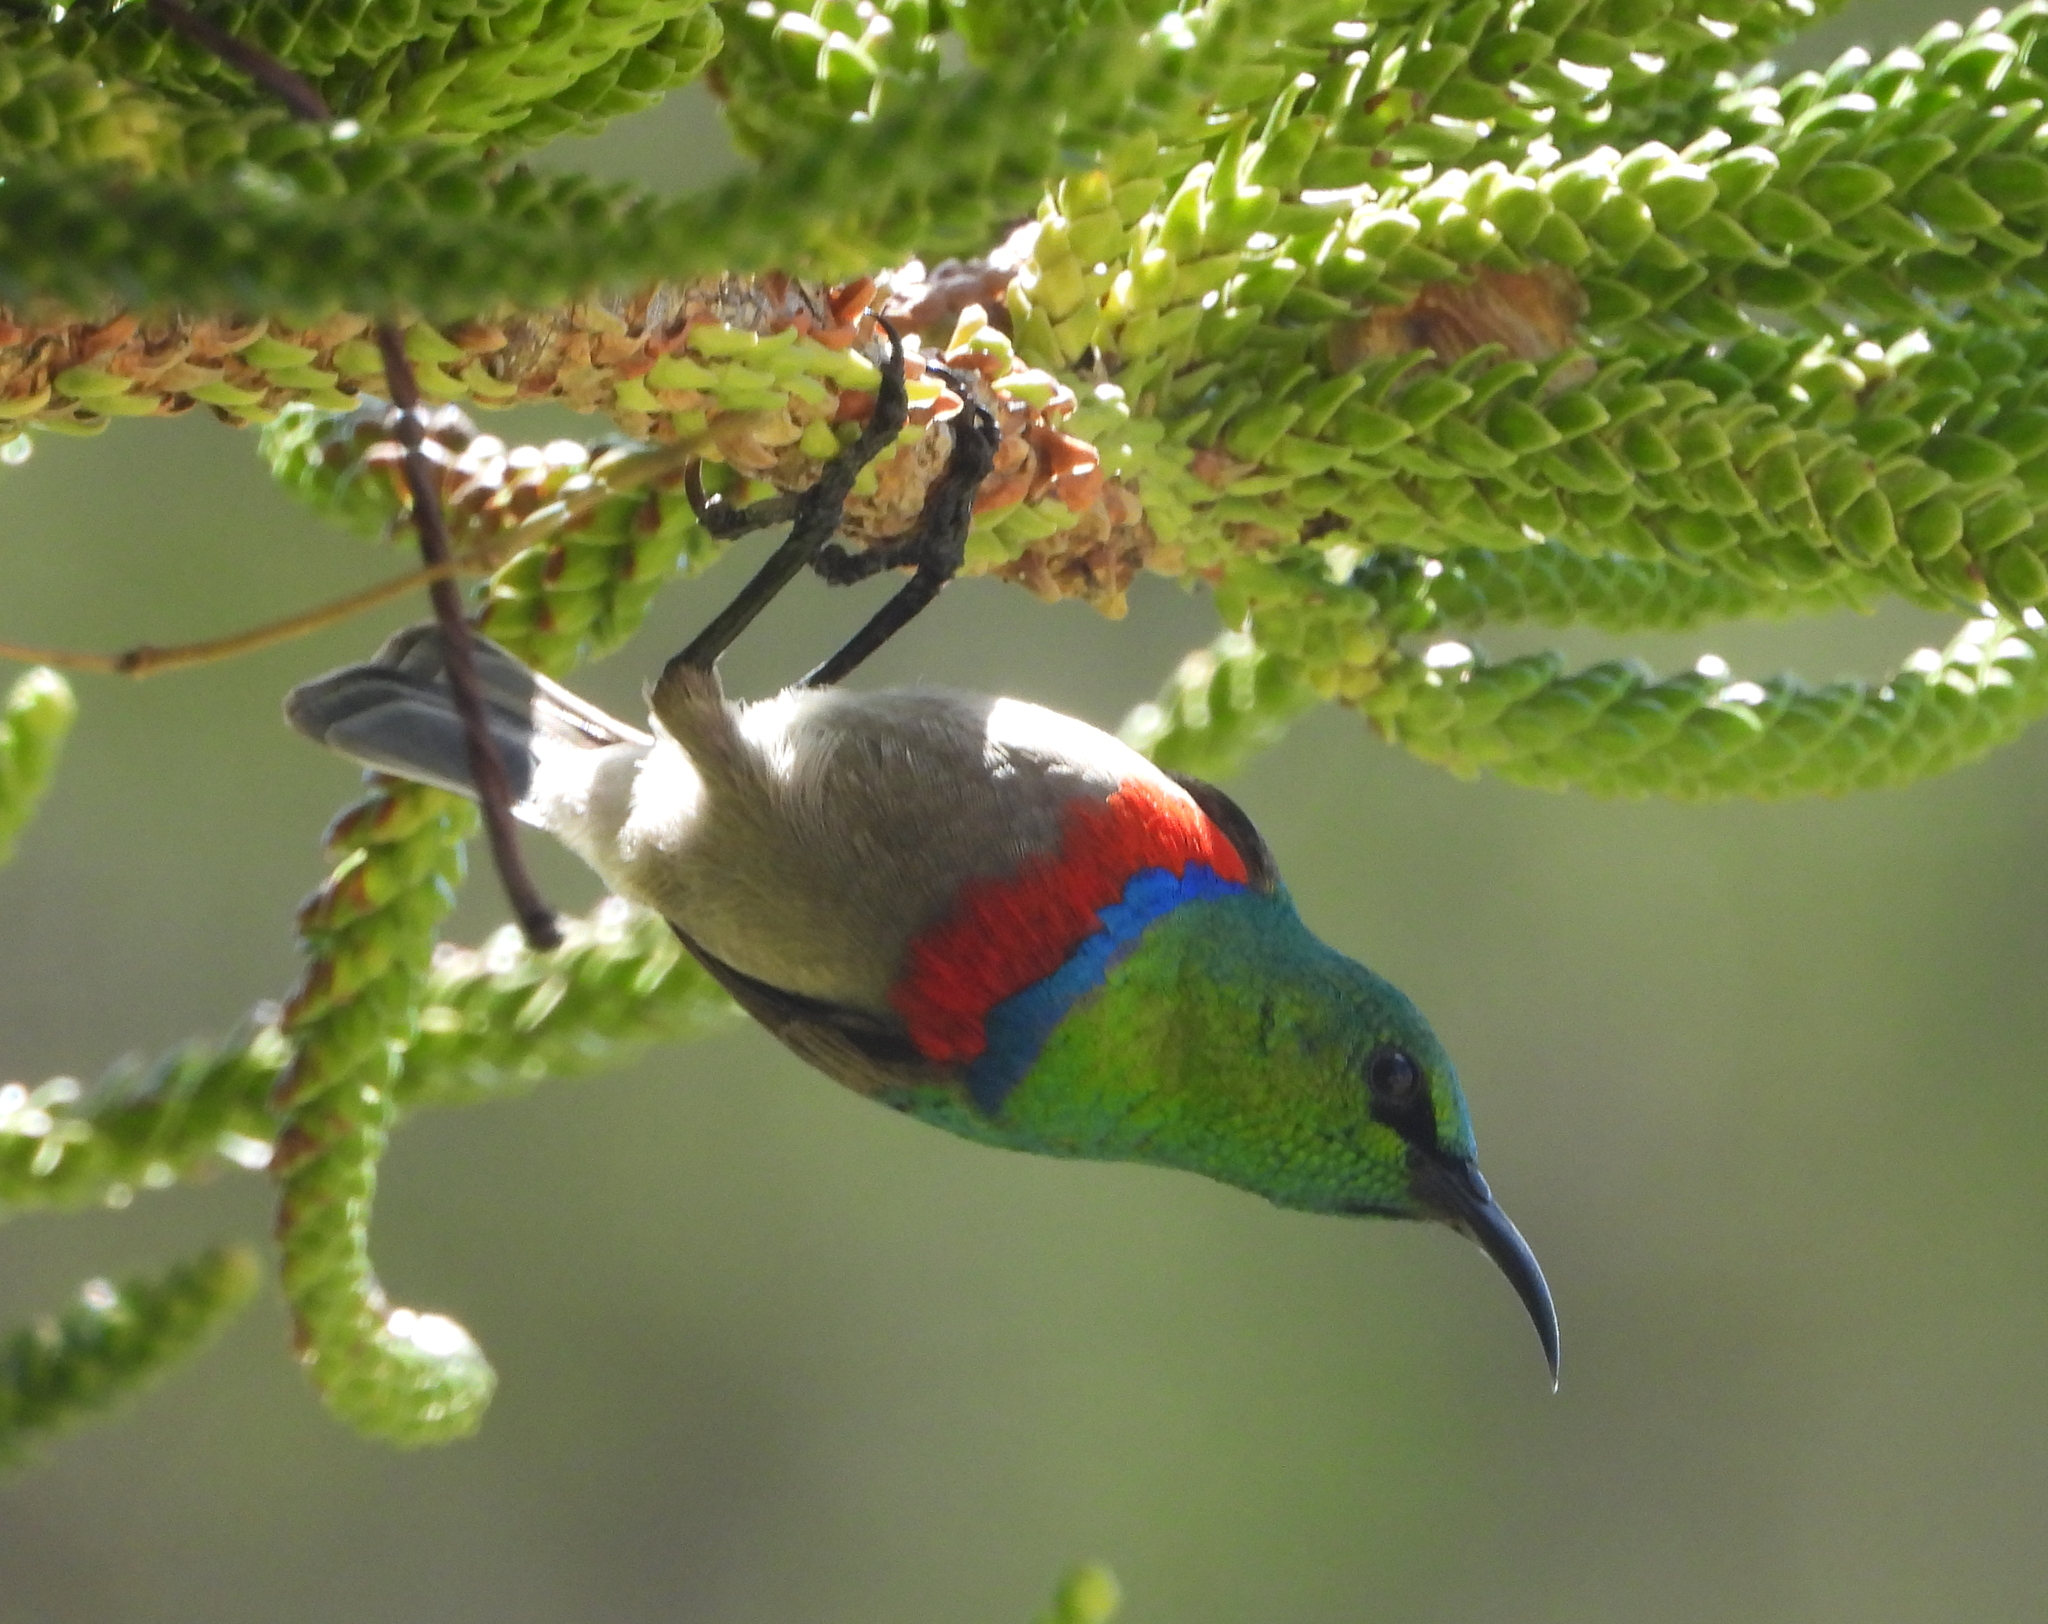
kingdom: Animalia
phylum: Chordata
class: Aves
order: Passeriformes
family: Nectariniidae
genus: Cinnyris
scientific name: Cinnyris chalybeus
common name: Southern double-collared sunbird
